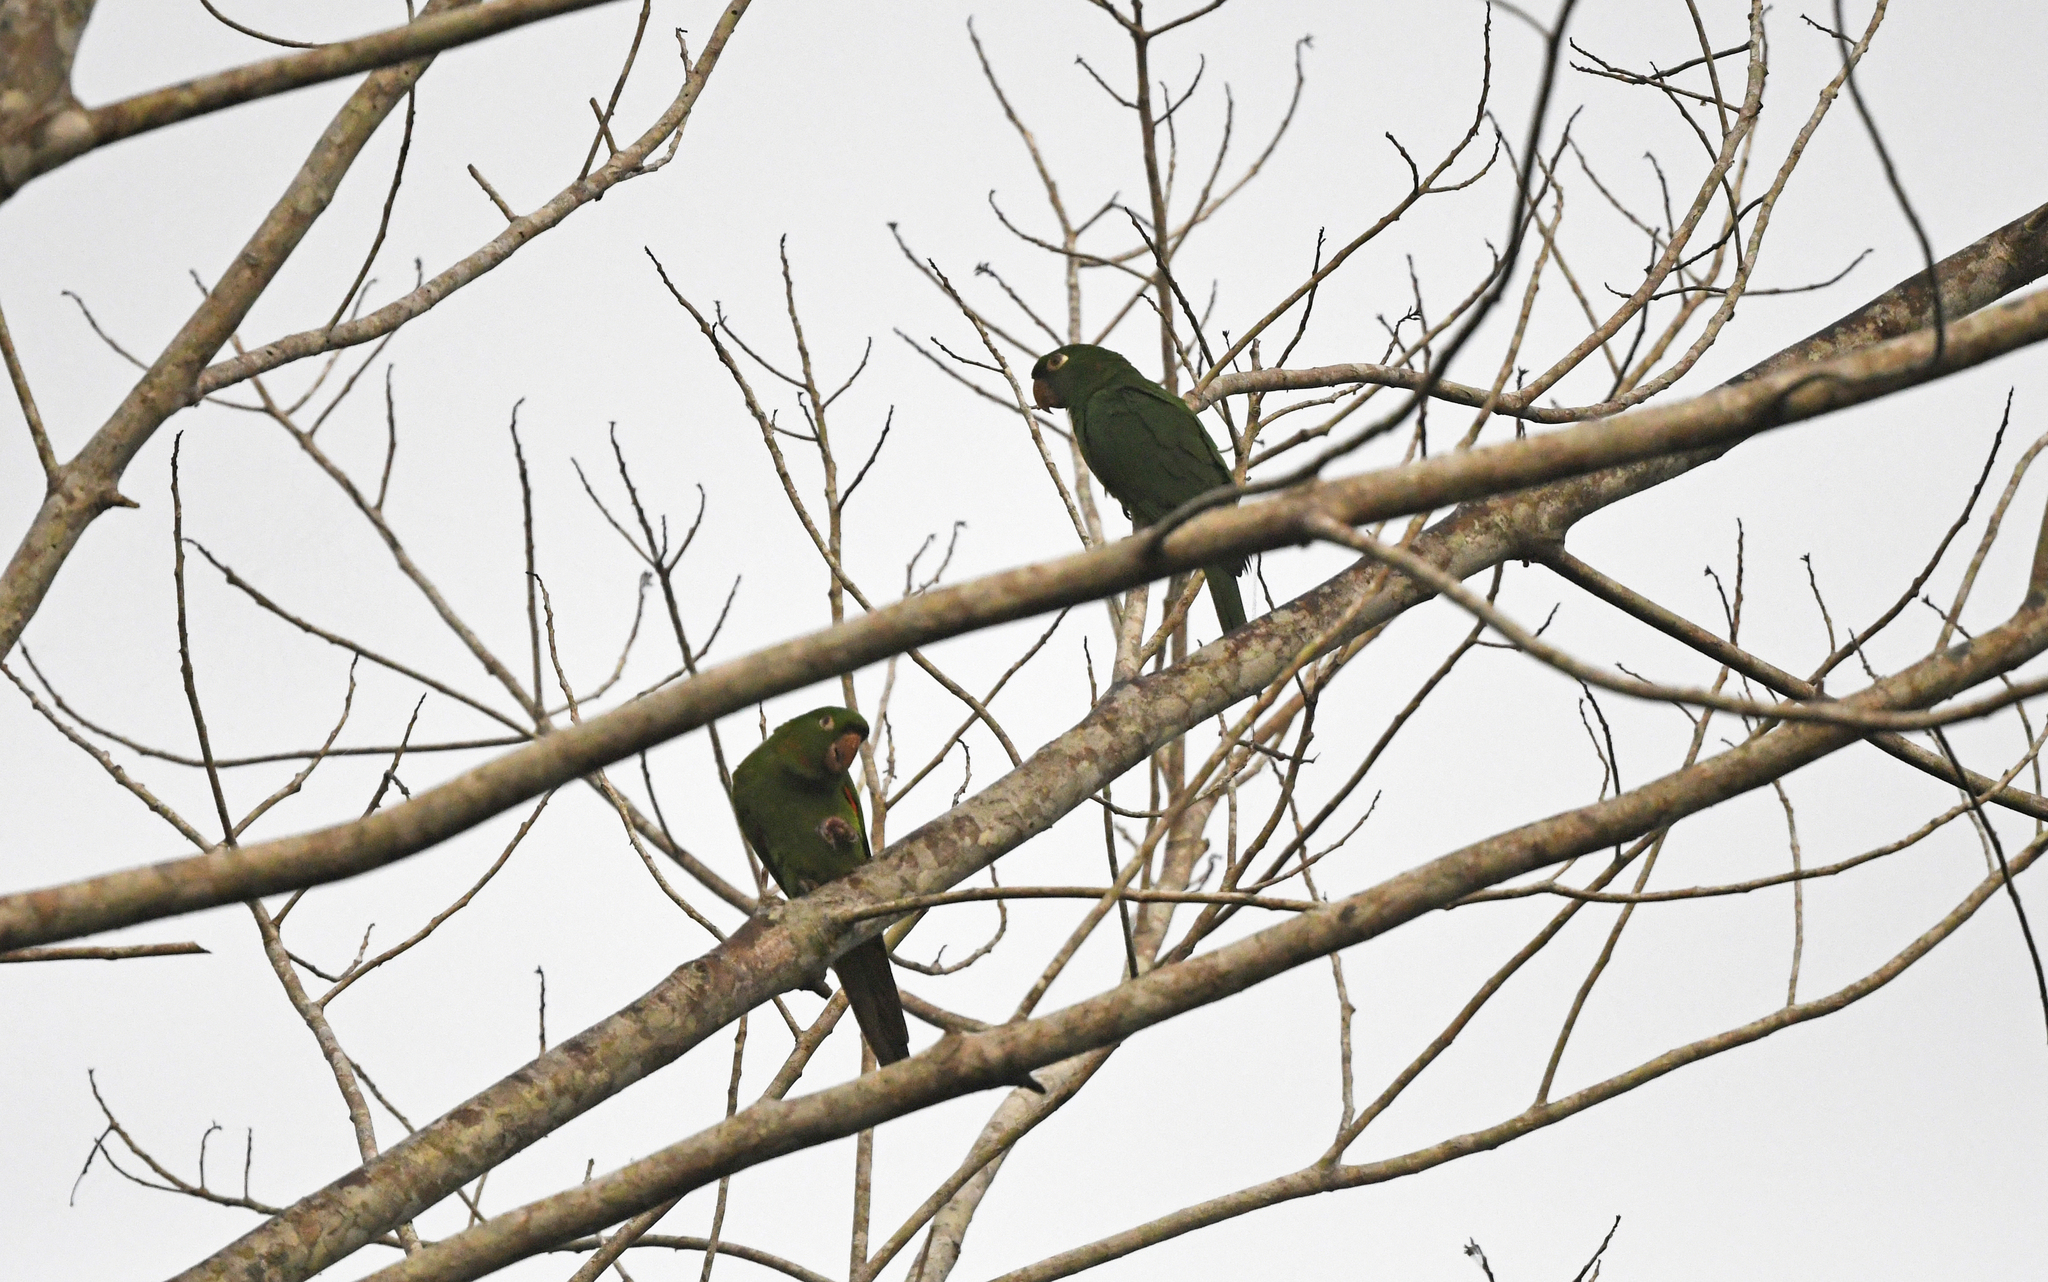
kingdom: Animalia
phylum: Chordata
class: Aves
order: Psittaciformes
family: Psittacidae
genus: Aratinga
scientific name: Aratinga leucophthalma
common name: White-eyed parakeet
